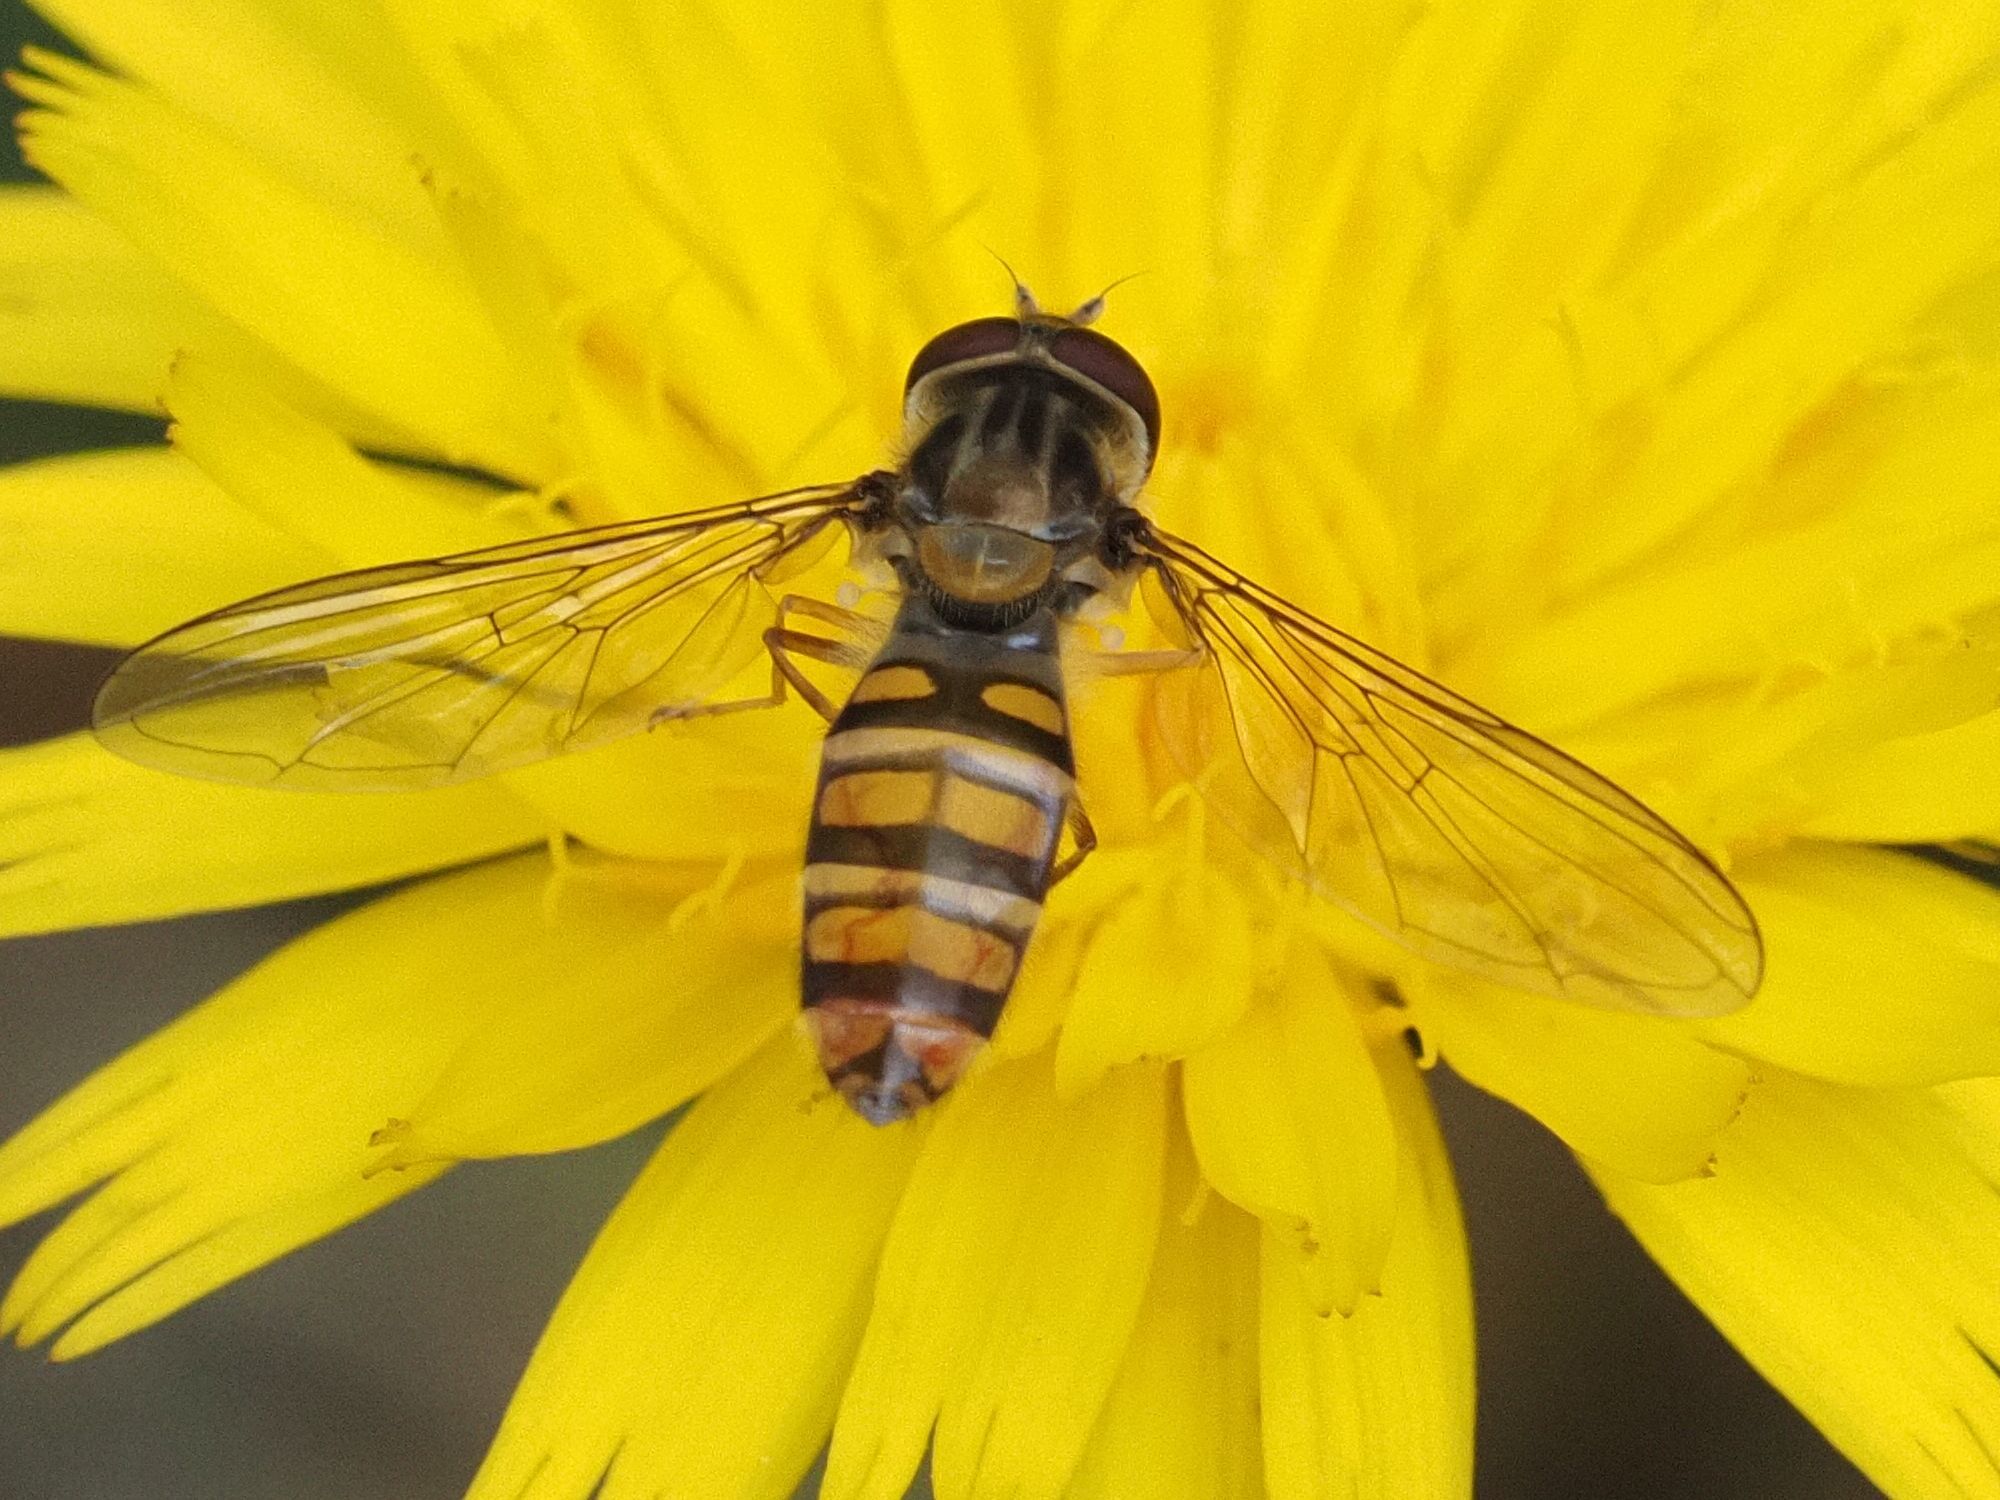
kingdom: Animalia
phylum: Arthropoda
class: Insecta
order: Diptera
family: Syrphidae
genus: Episyrphus
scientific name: Episyrphus balteatus
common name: Marmalade hoverfly
